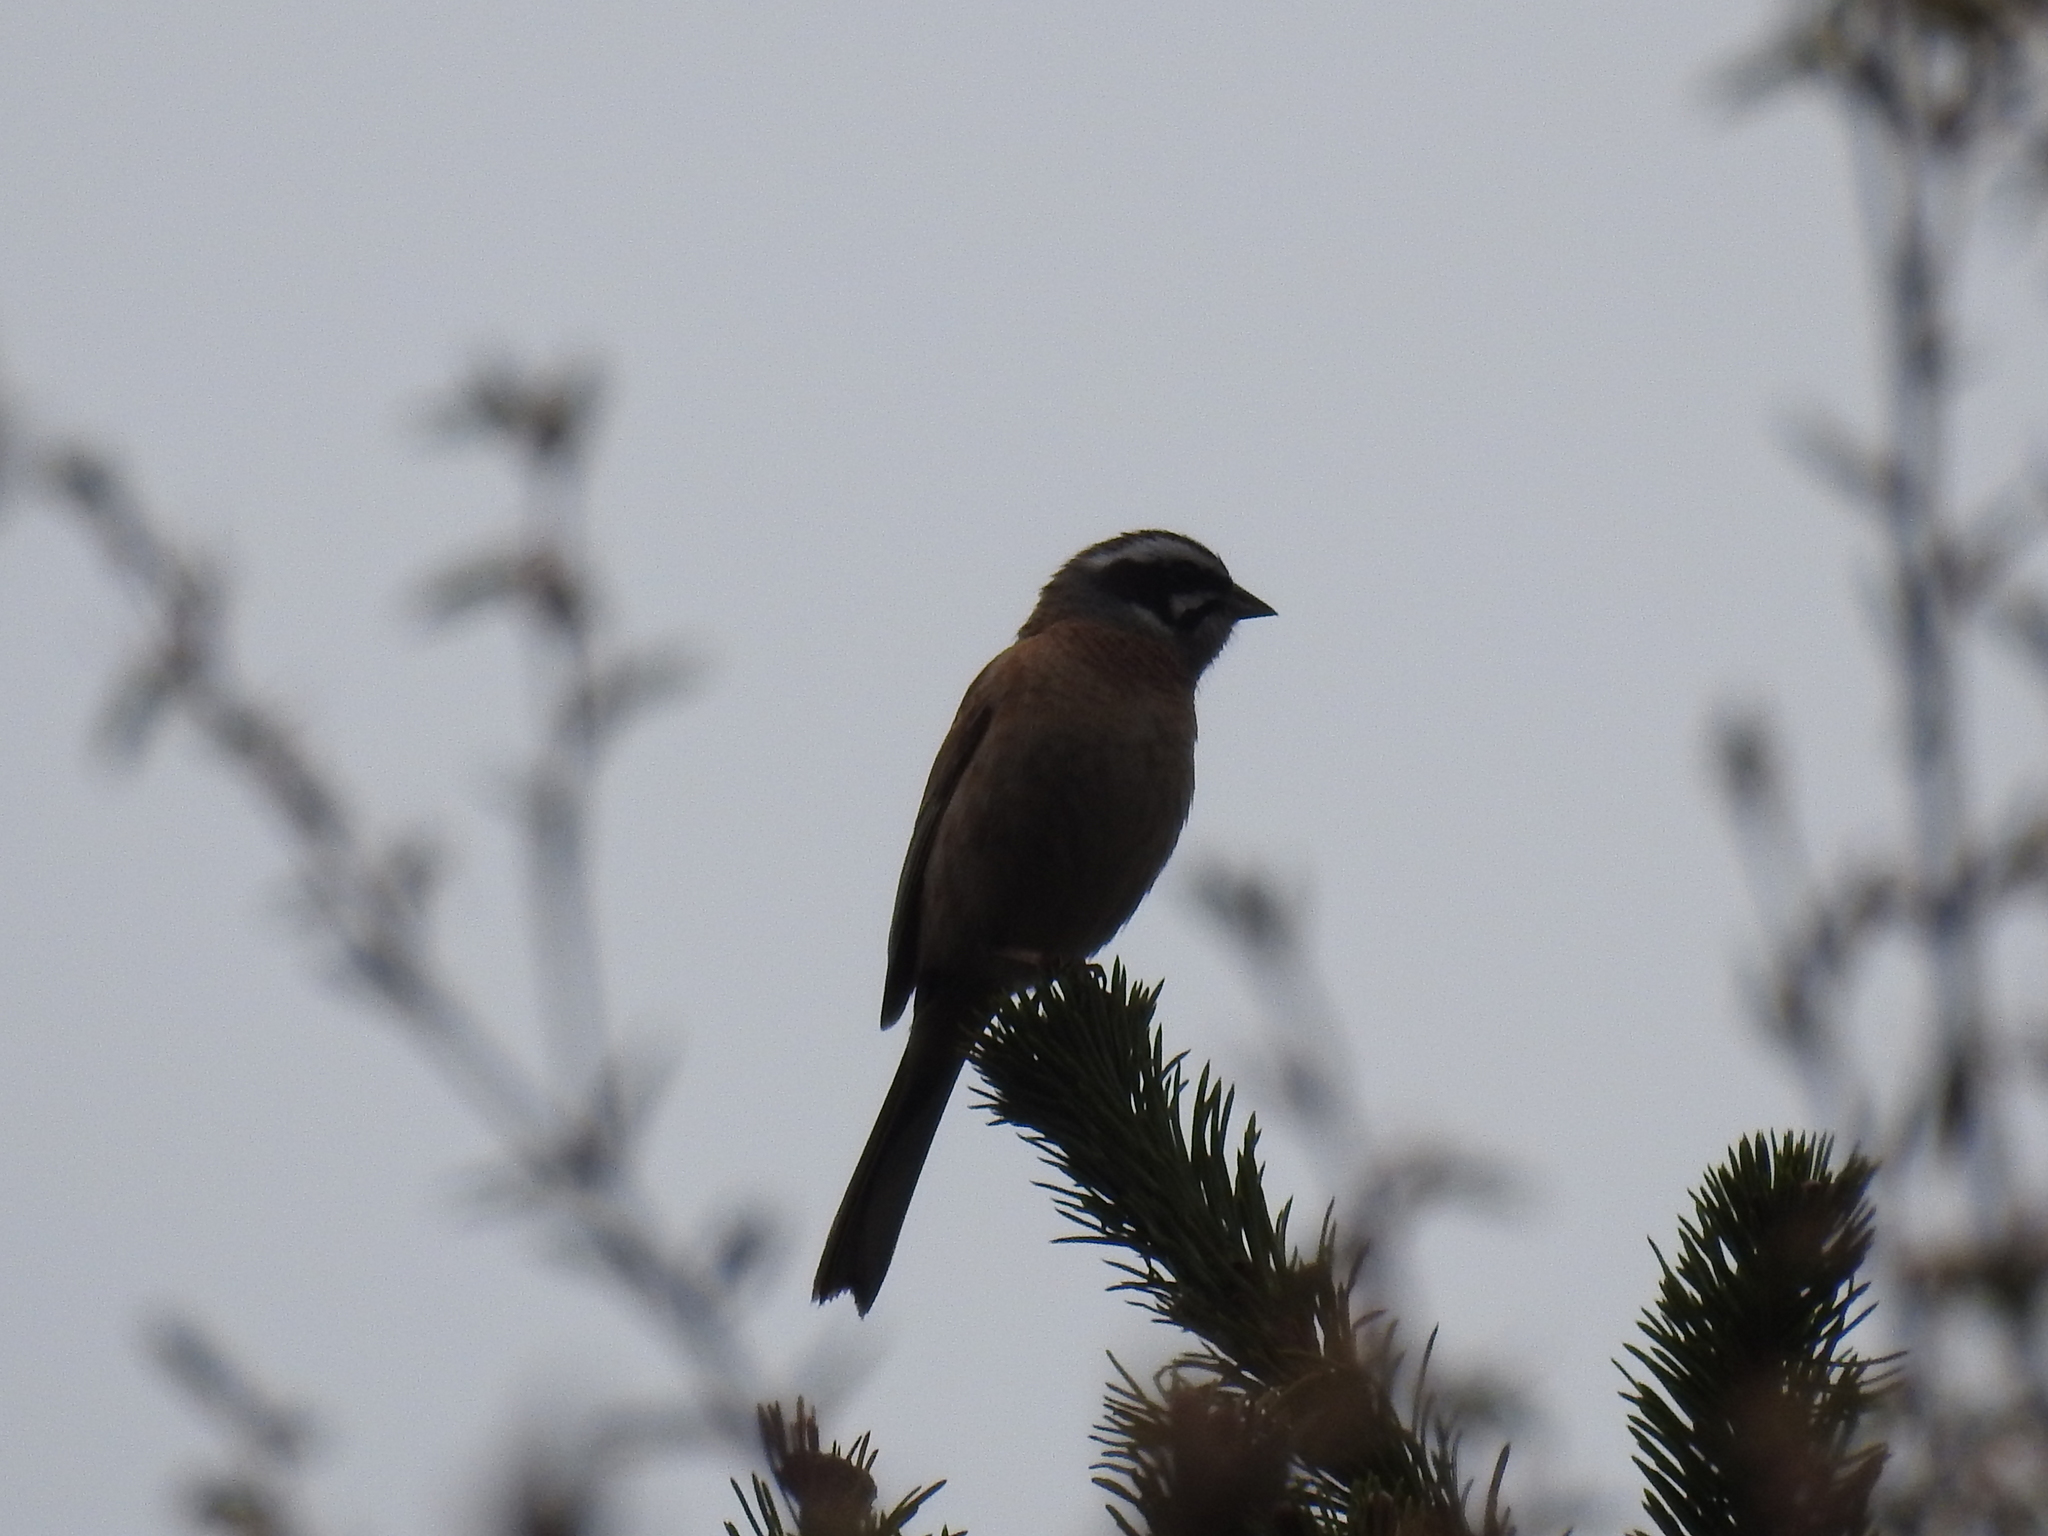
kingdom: Animalia
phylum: Chordata
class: Aves
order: Passeriformes
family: Emberizidae
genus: Emberiza
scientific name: Emberiza cioides
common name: Meadow bunting
